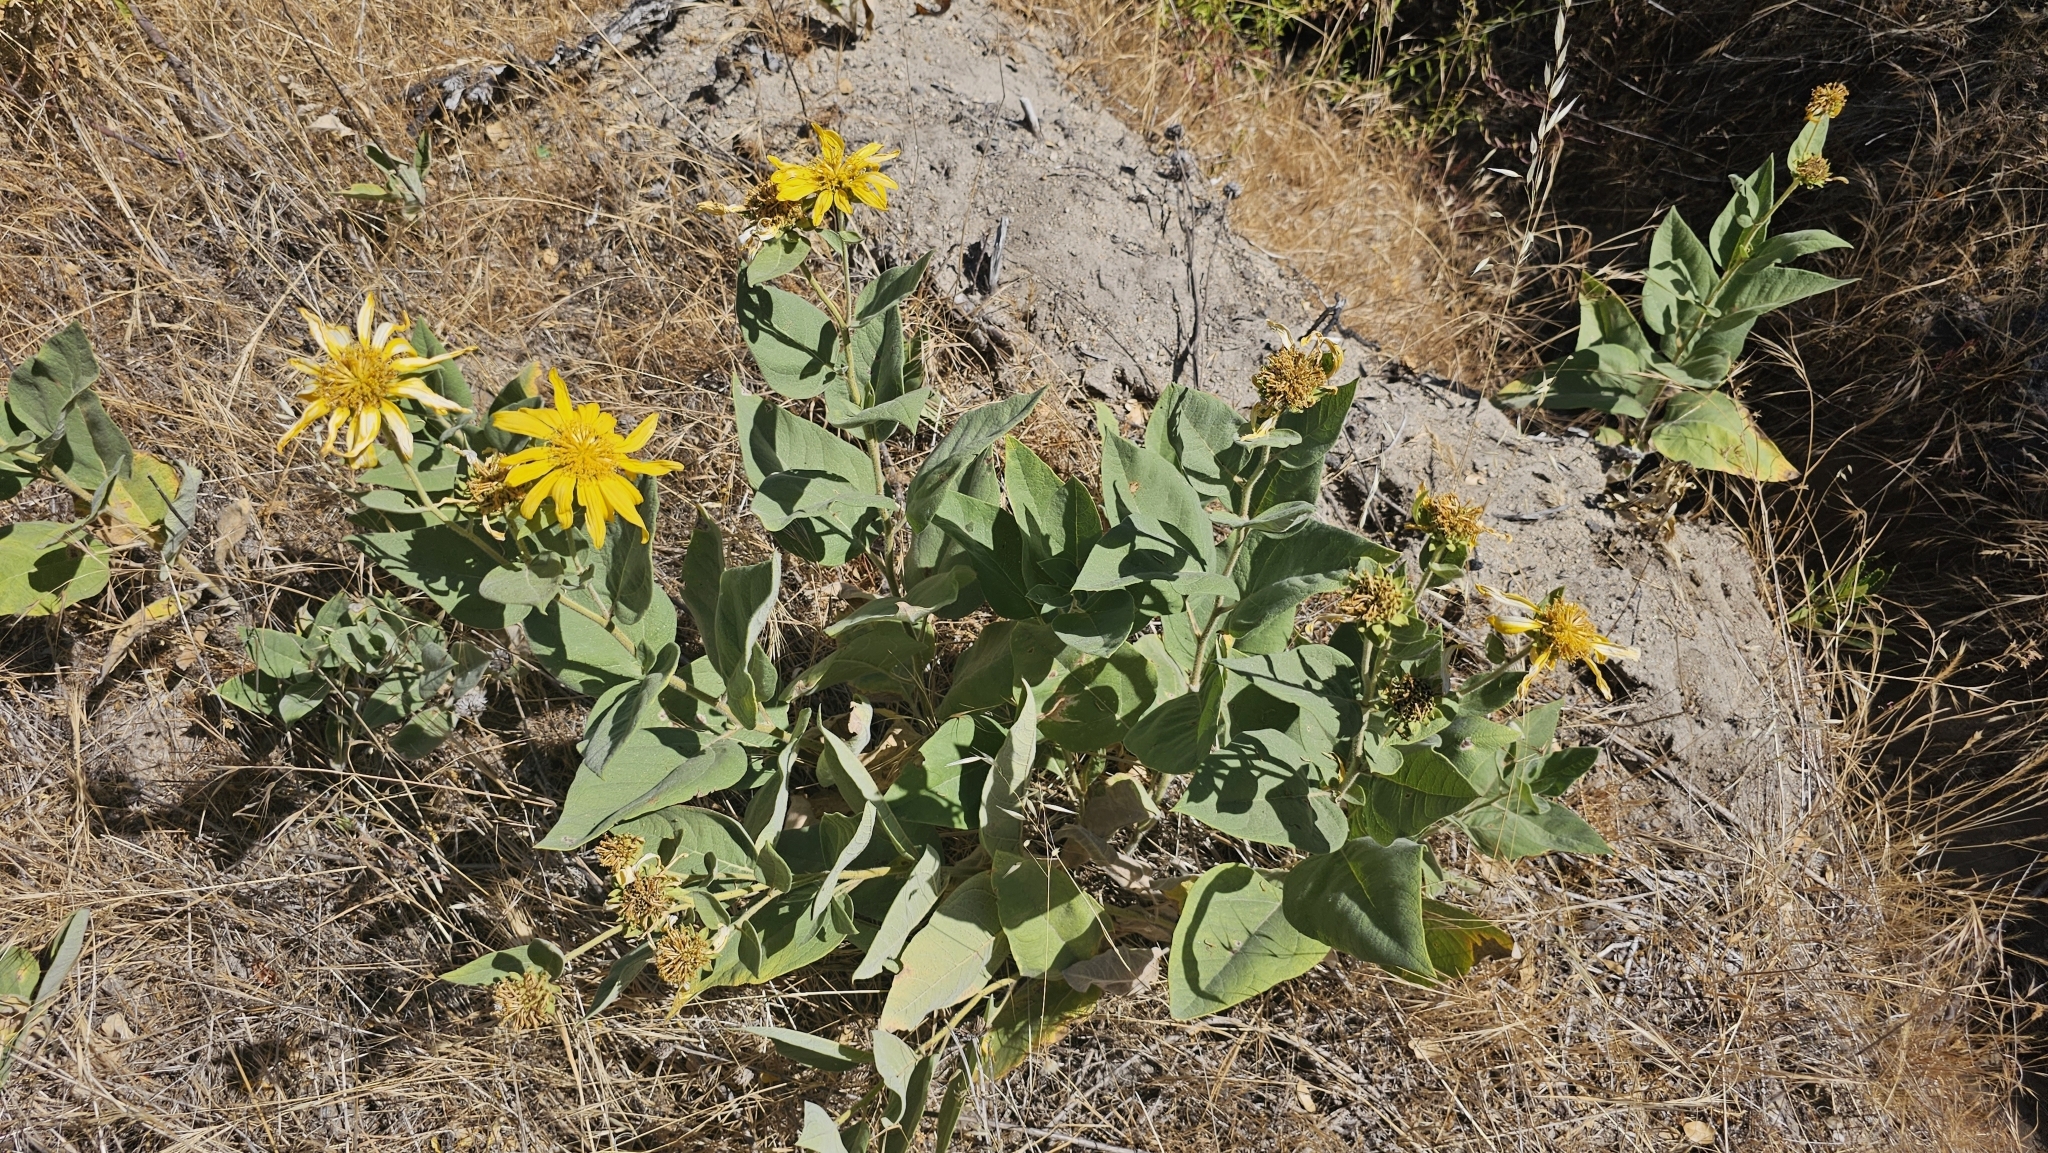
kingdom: Plantae
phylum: Tracheophyta
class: Magnoliopsida
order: Asterales
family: Asteraceae
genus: Agnorhiza
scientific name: Agnorhiza elata
